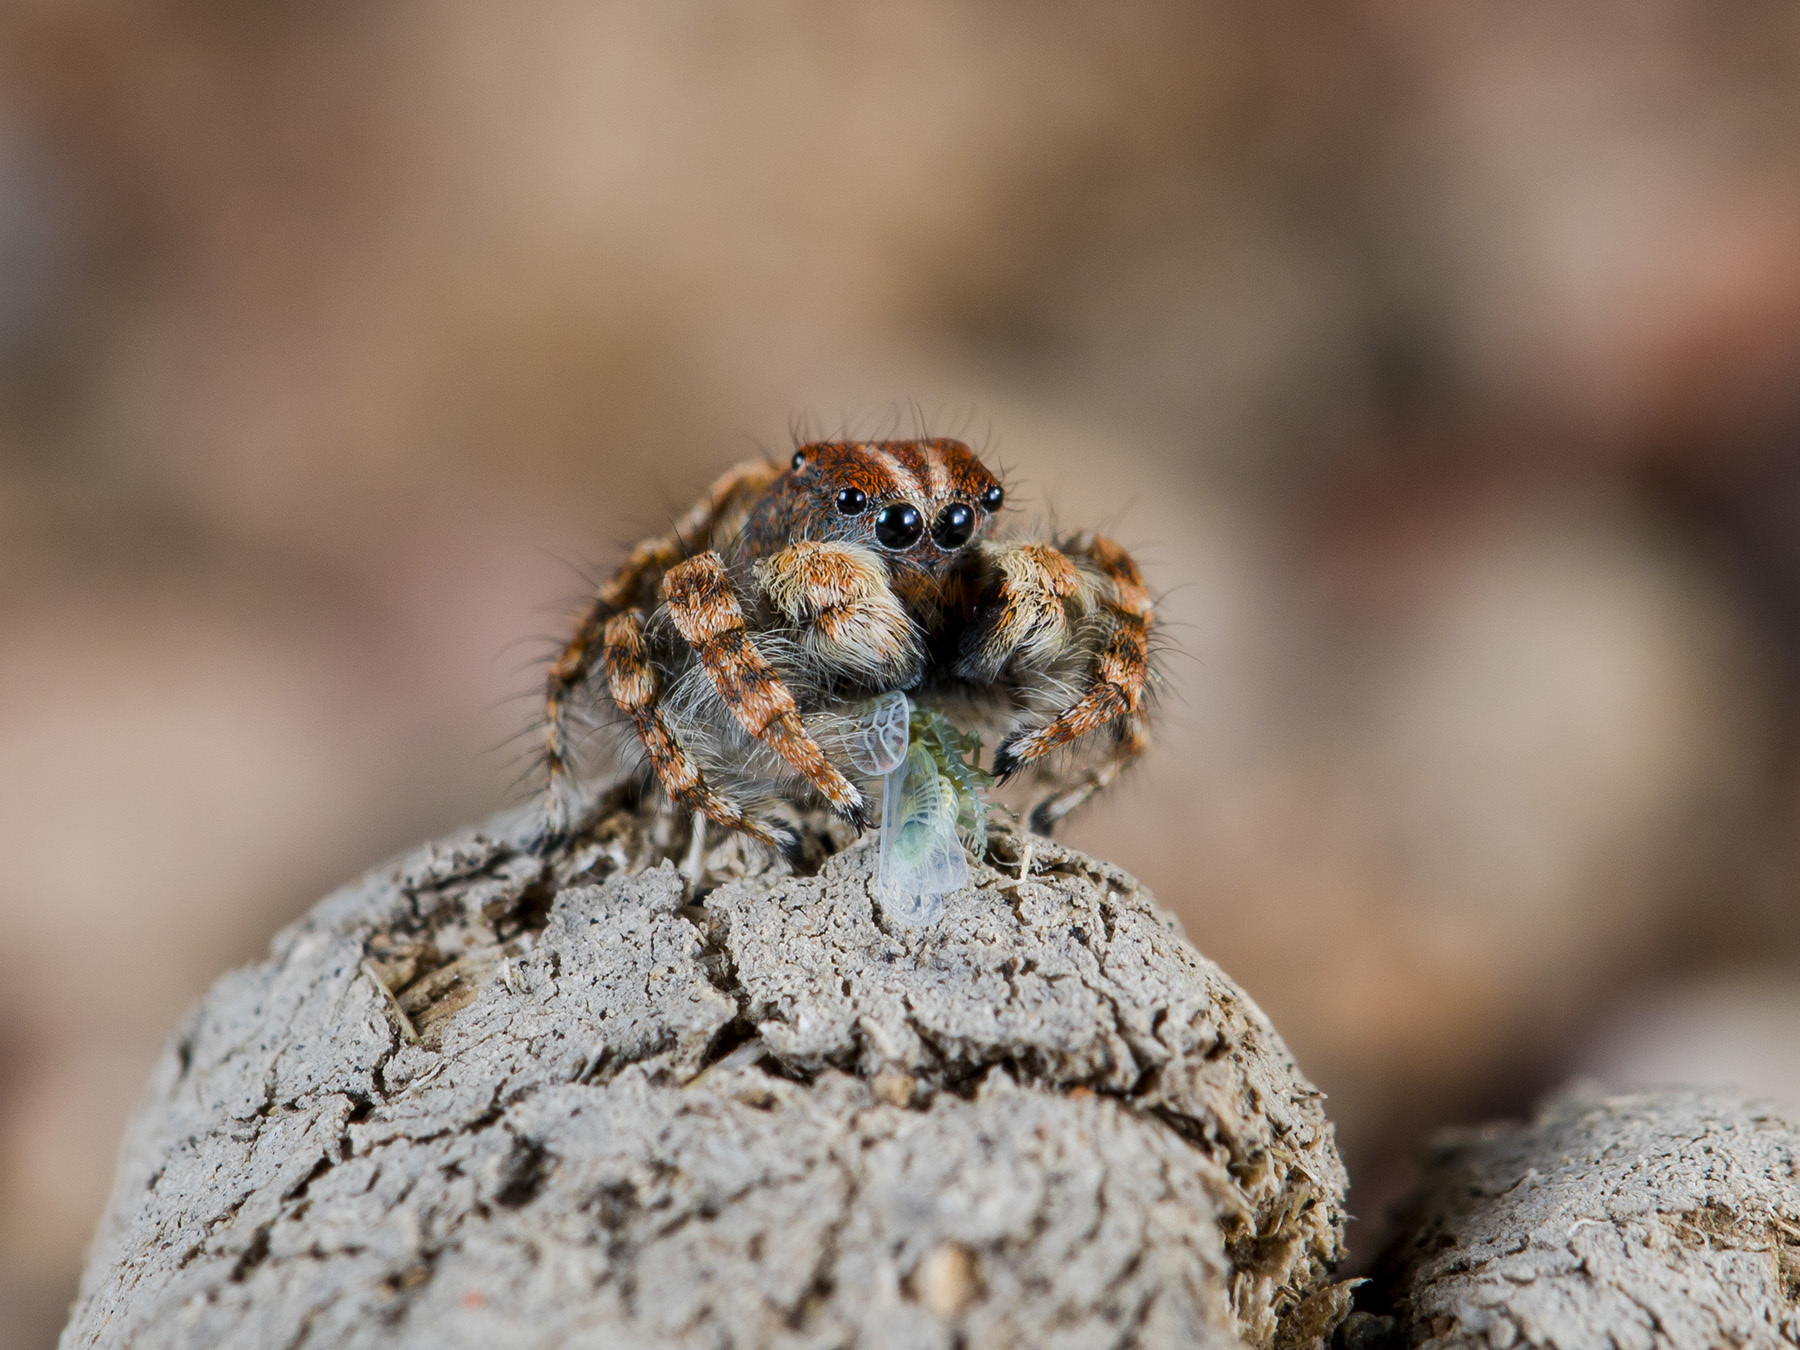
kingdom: Animalia
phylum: Arthropoda
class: Arachnida
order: Araneae
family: Salticidae
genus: Yllenus
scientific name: Yllenus zyuzini
